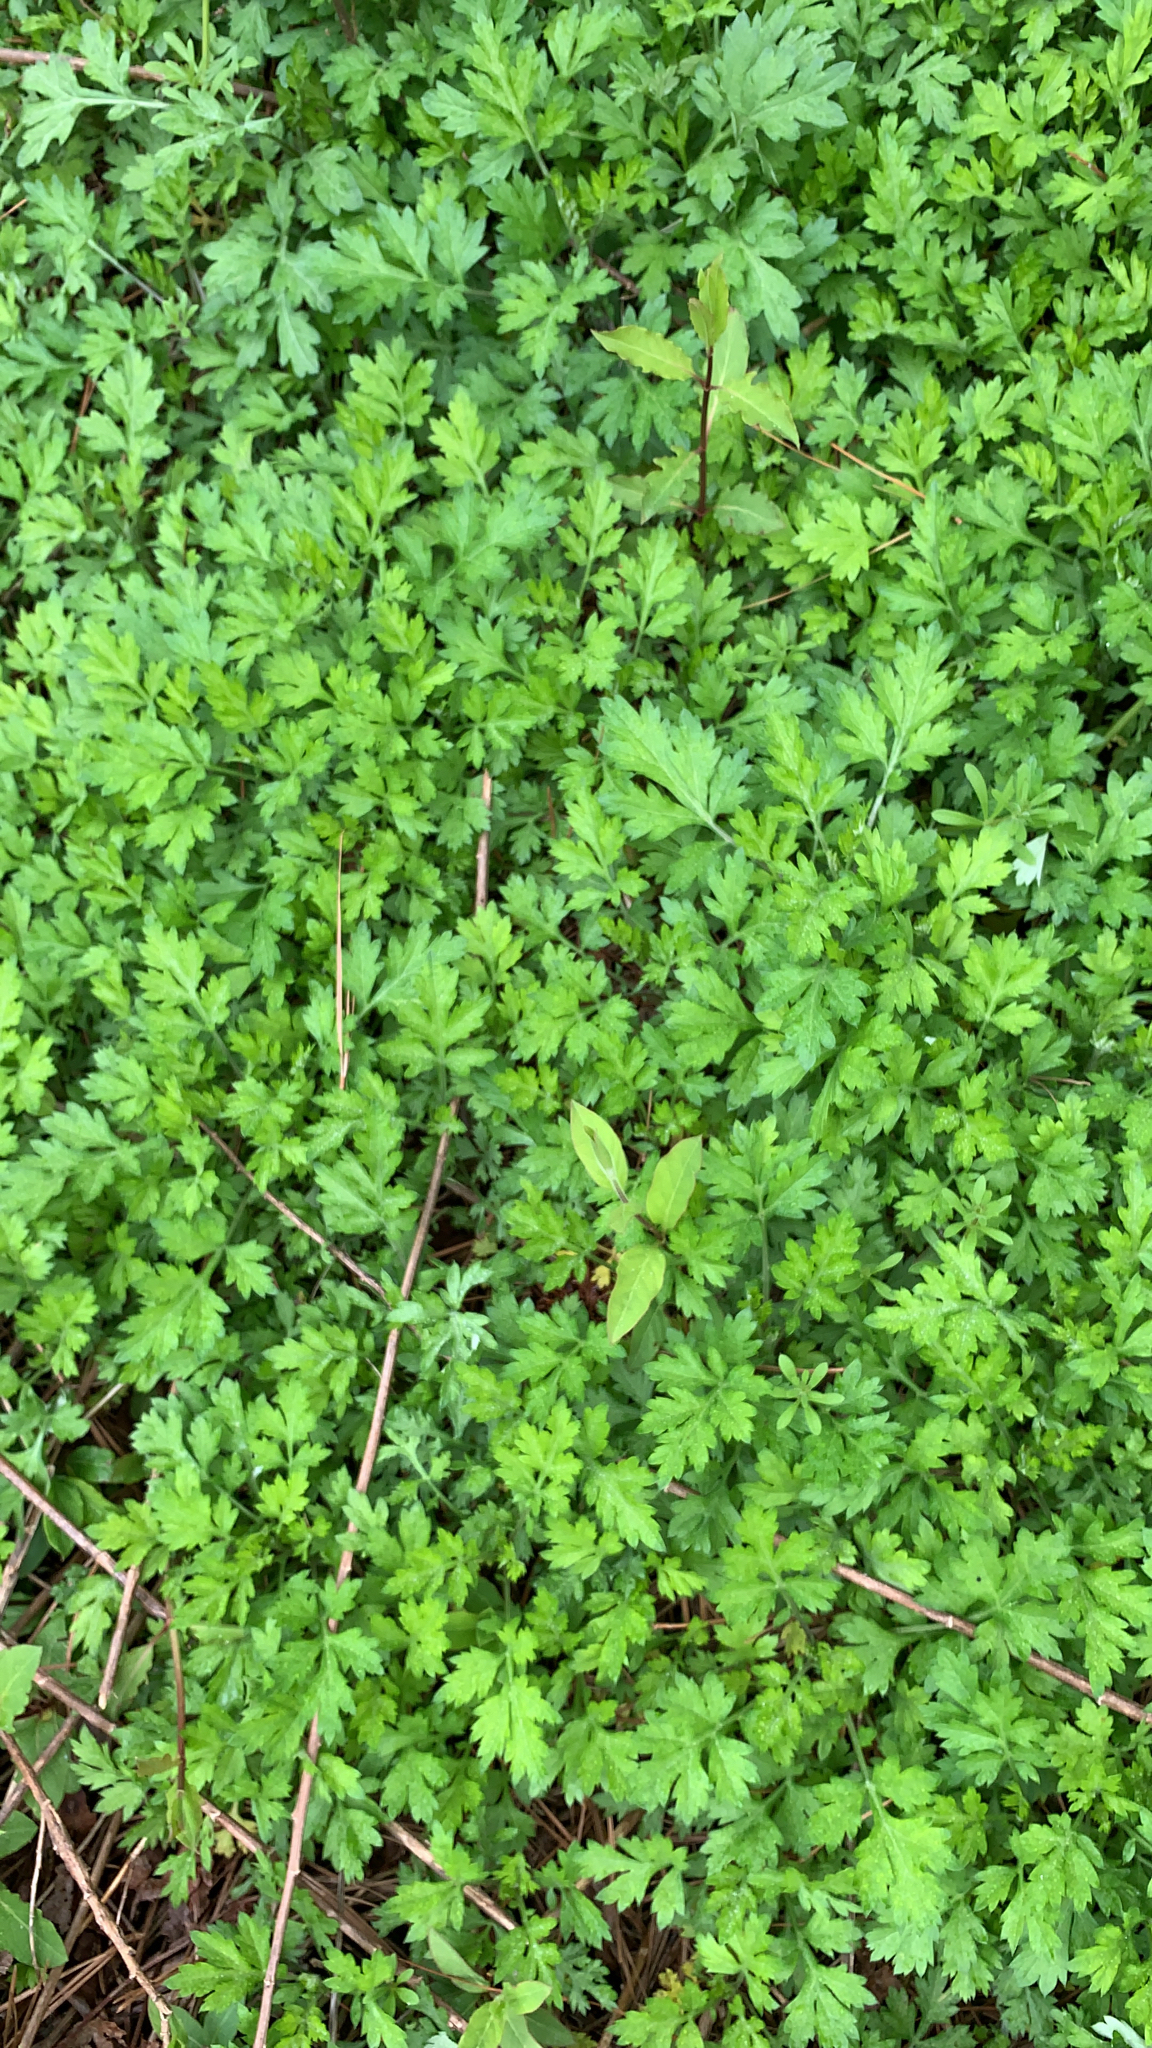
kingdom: Plantae
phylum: Tracheophyta
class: Magnoliopsida
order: Asterales
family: Asteraceae
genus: Artemisia
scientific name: Artemisia vulgaris
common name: Mugwort
